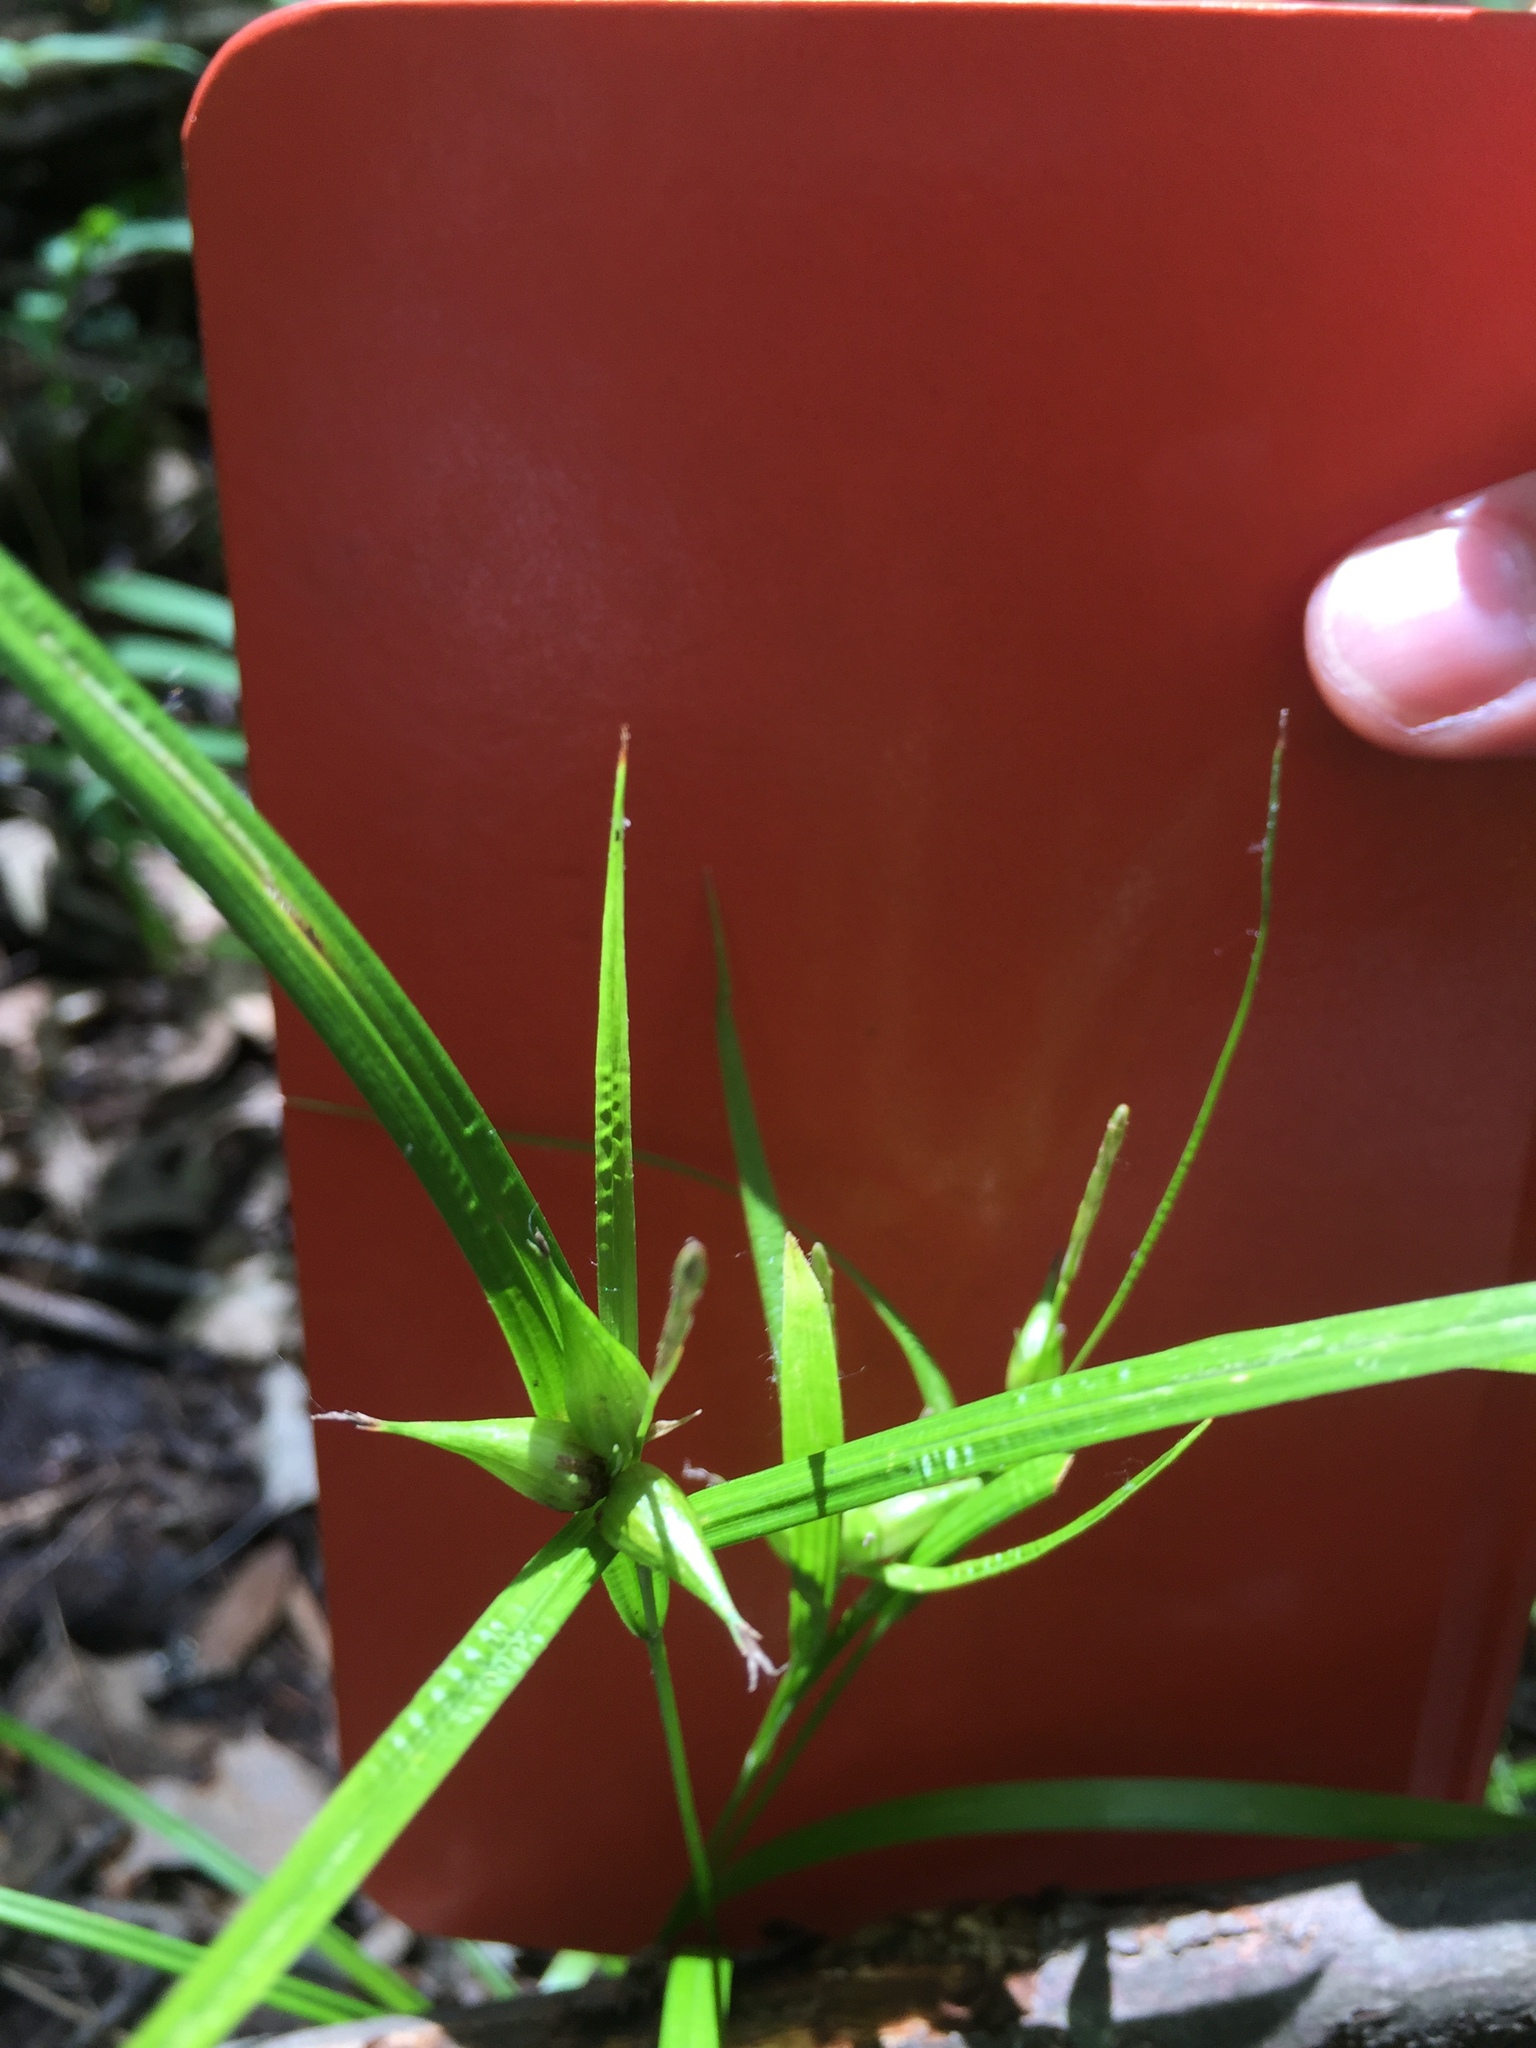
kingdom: Plantae
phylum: Tracheophyta
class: Liliopsida
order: Poales
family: Cyperaceae
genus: Carex
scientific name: Carex intumescens
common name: Greater bladder sedge
